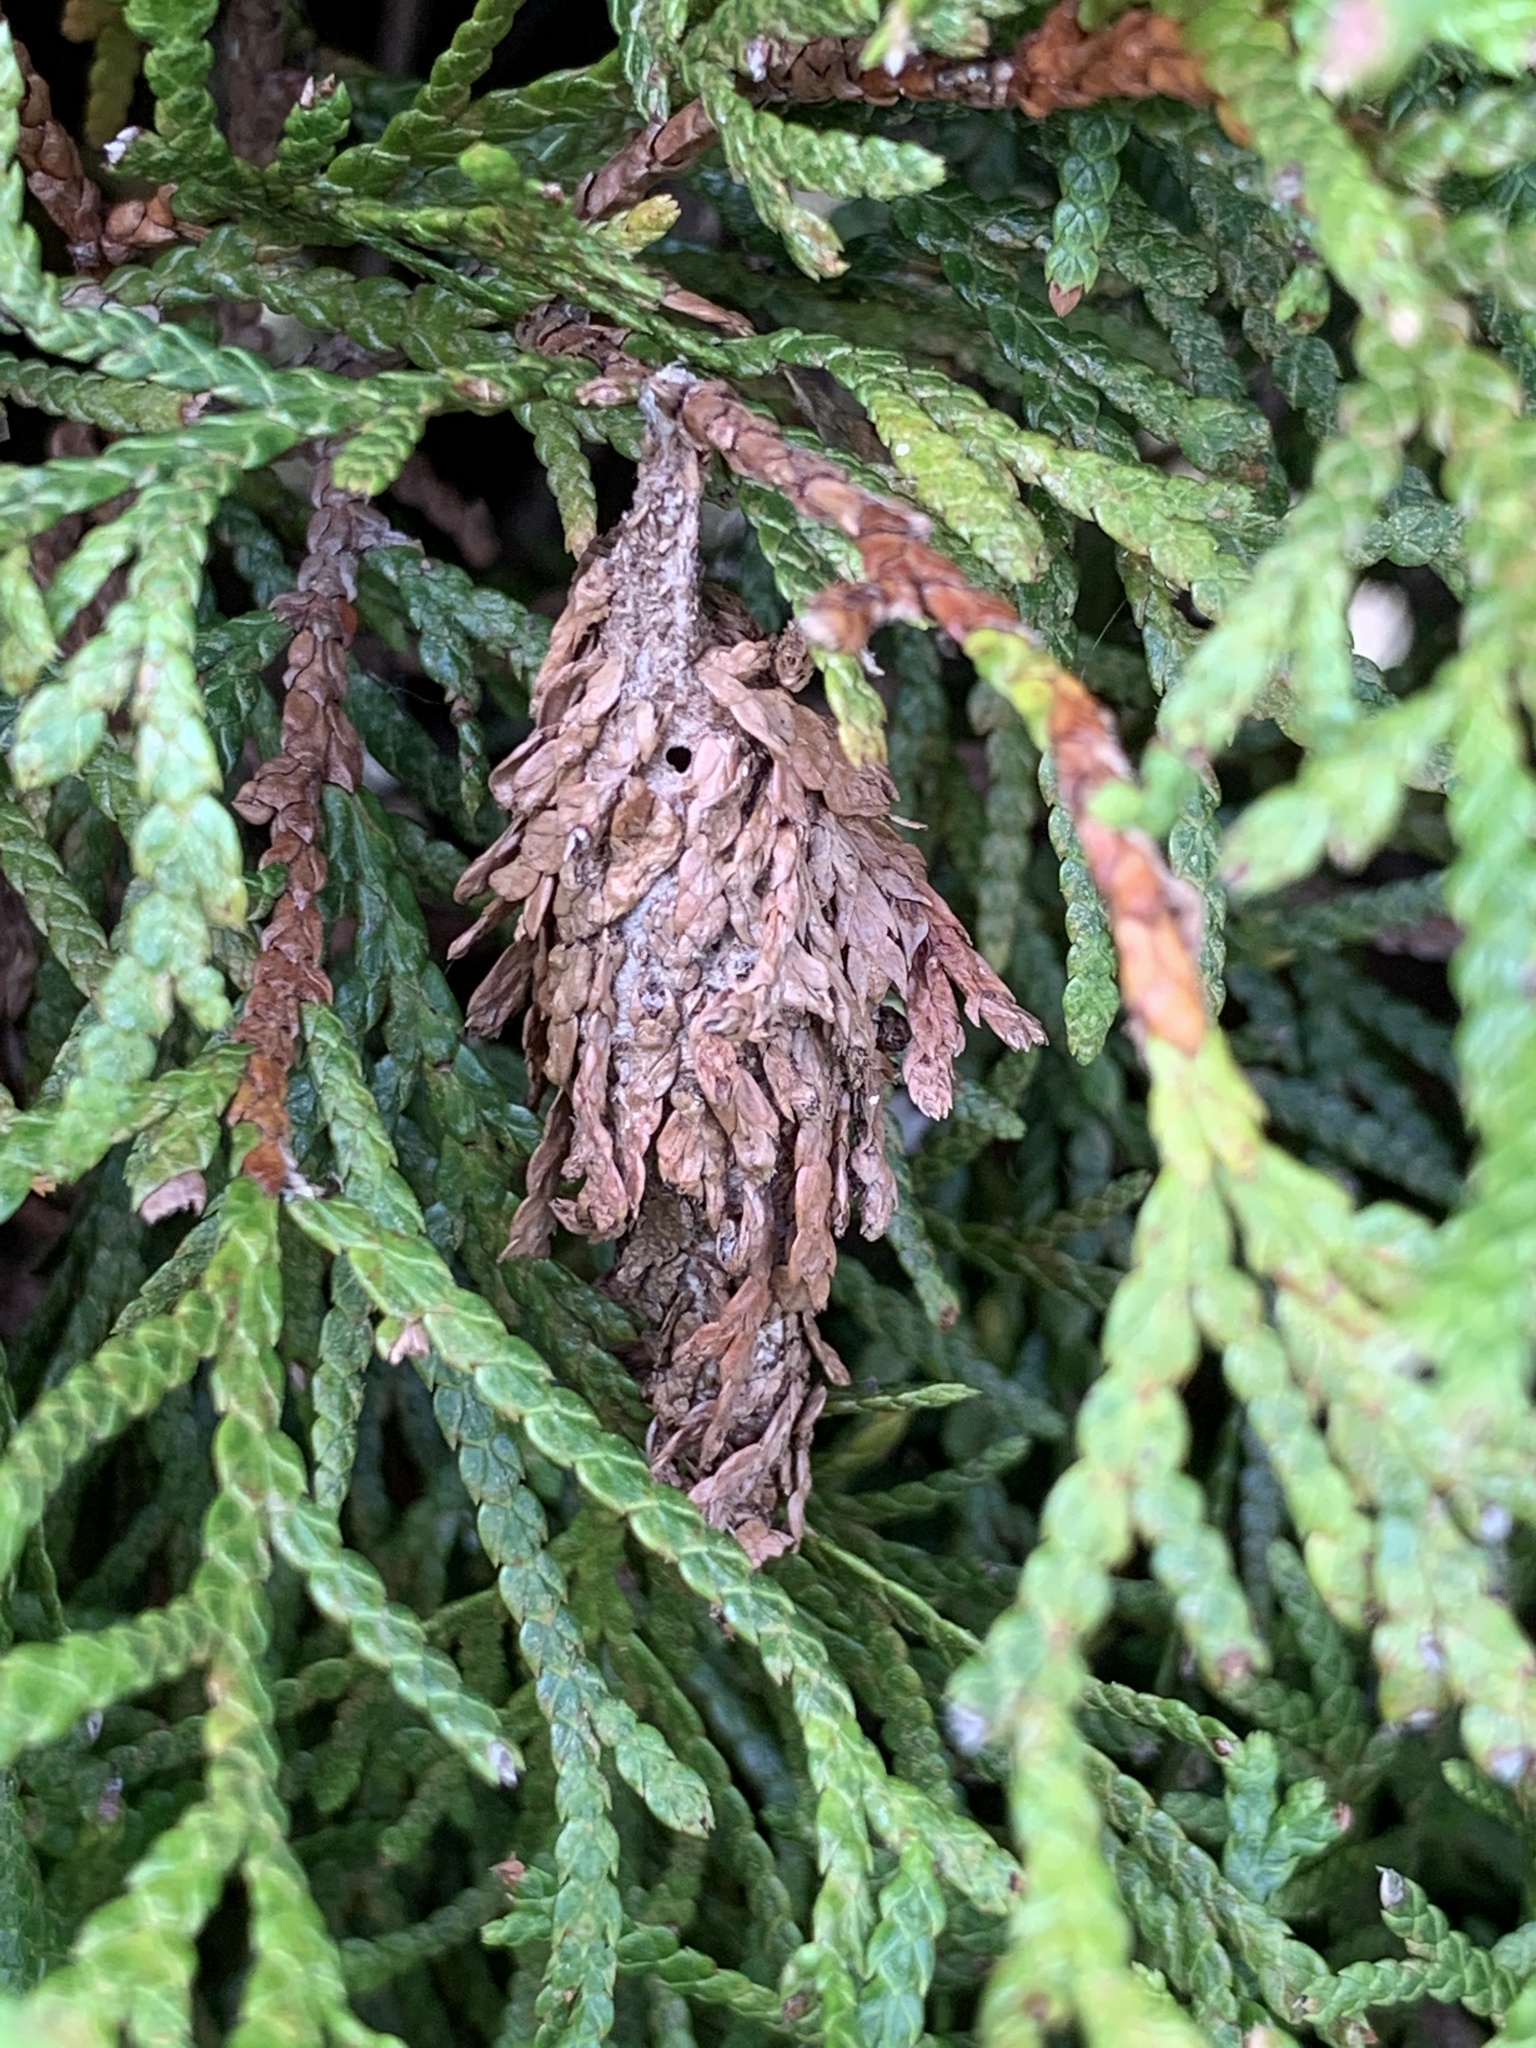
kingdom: Animalia
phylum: Arthropoda
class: Insecta
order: Lepidoptera
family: Psychidae
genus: Thyridopteryx
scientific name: Thyridopteryx ephemeraeformis
